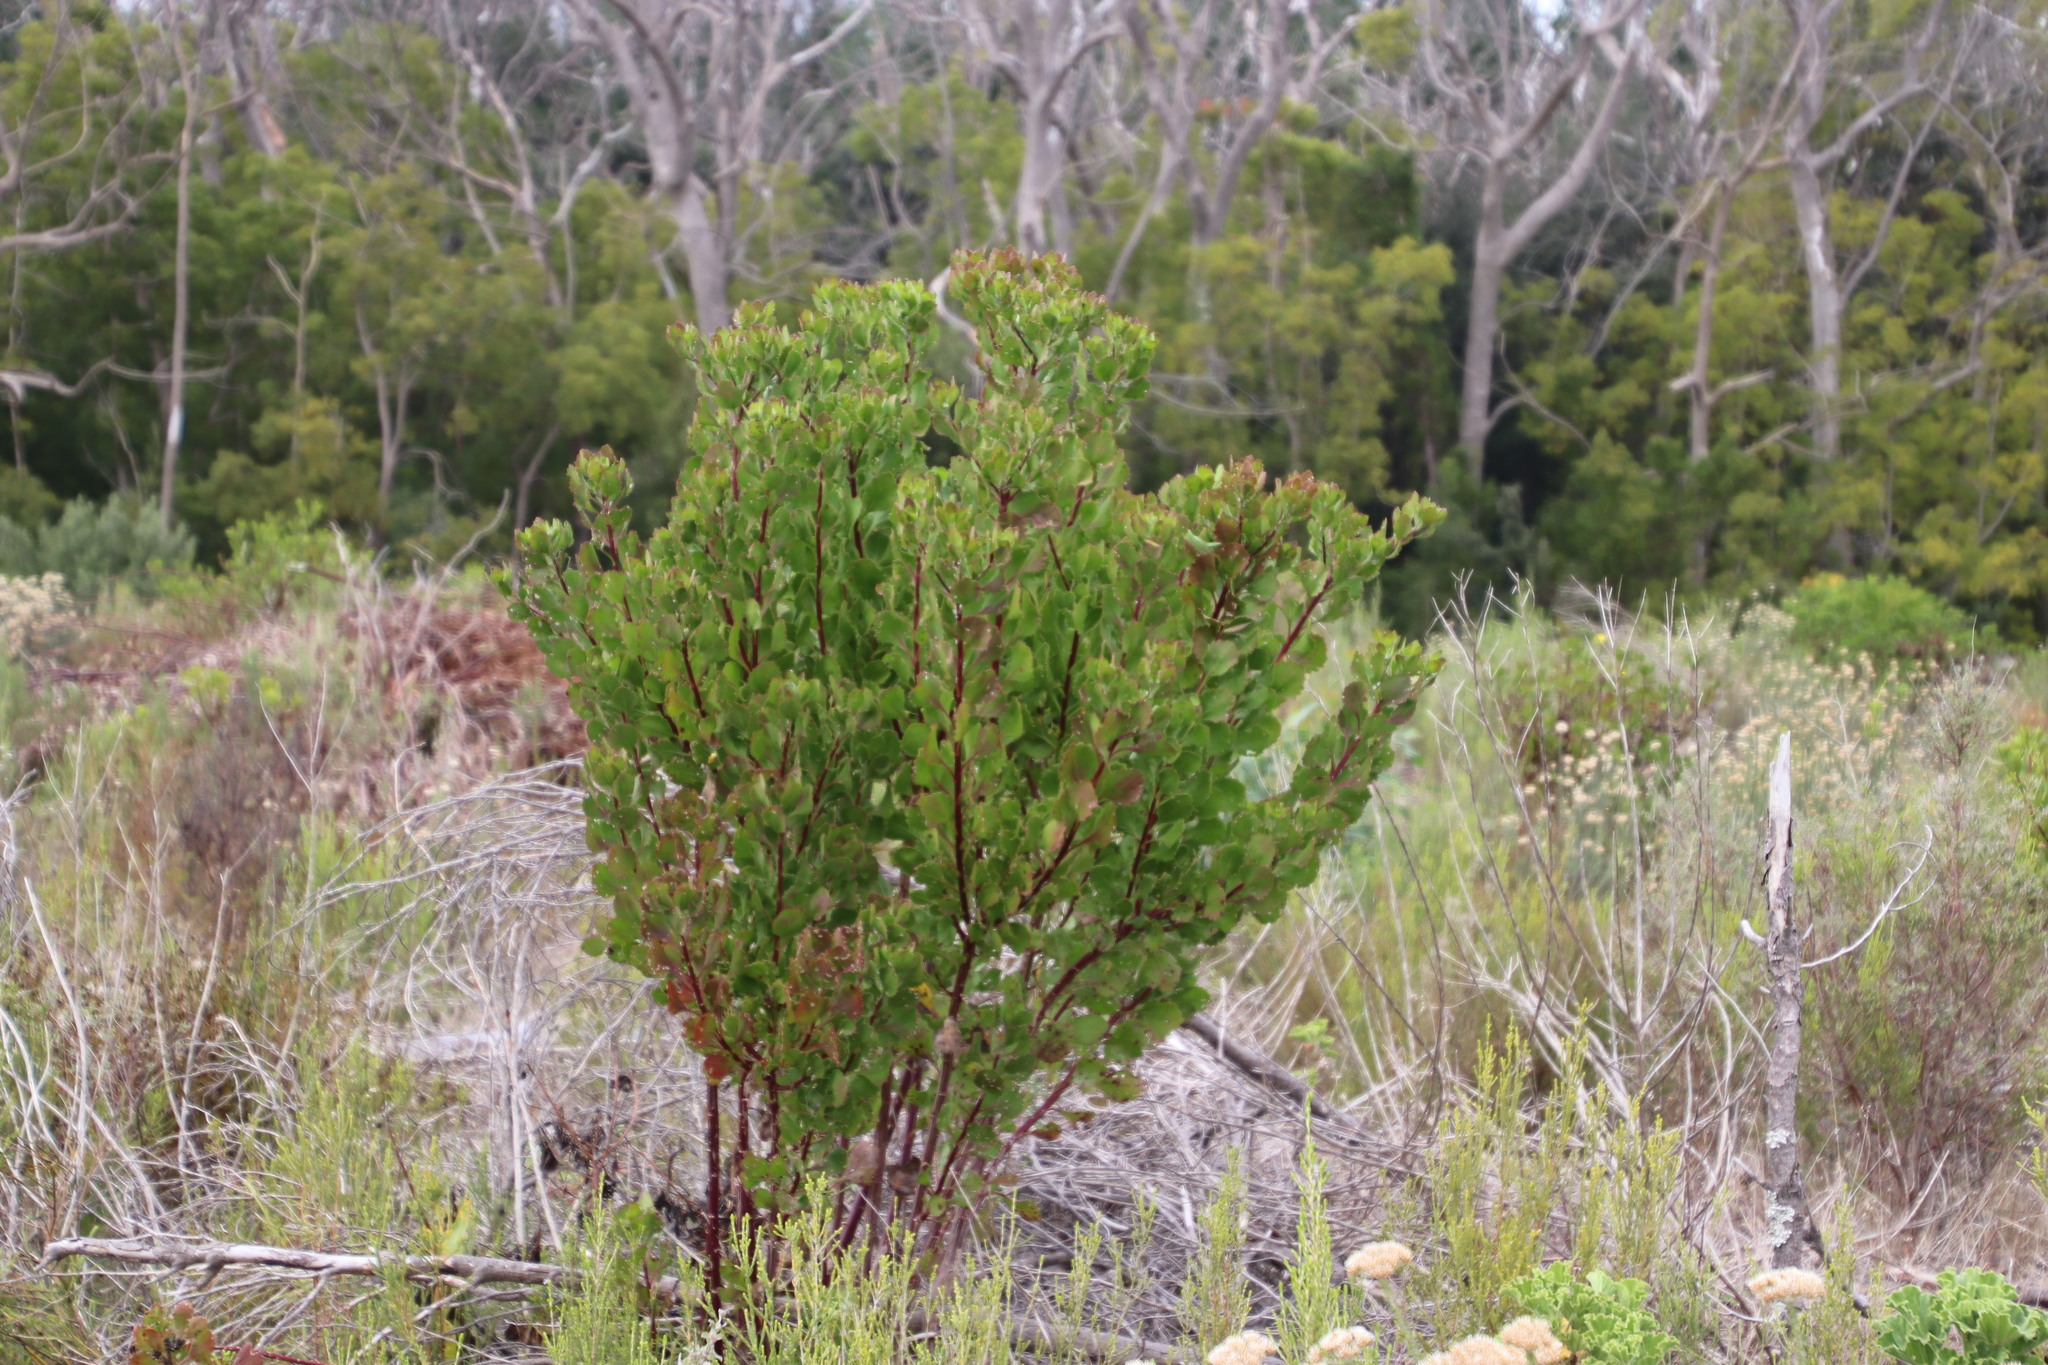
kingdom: Plantae
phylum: Tracheophyta
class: Magnoliopsida
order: Asterales
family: Asteraceae
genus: Osteospermum
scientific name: Osteospermum moniliferum
